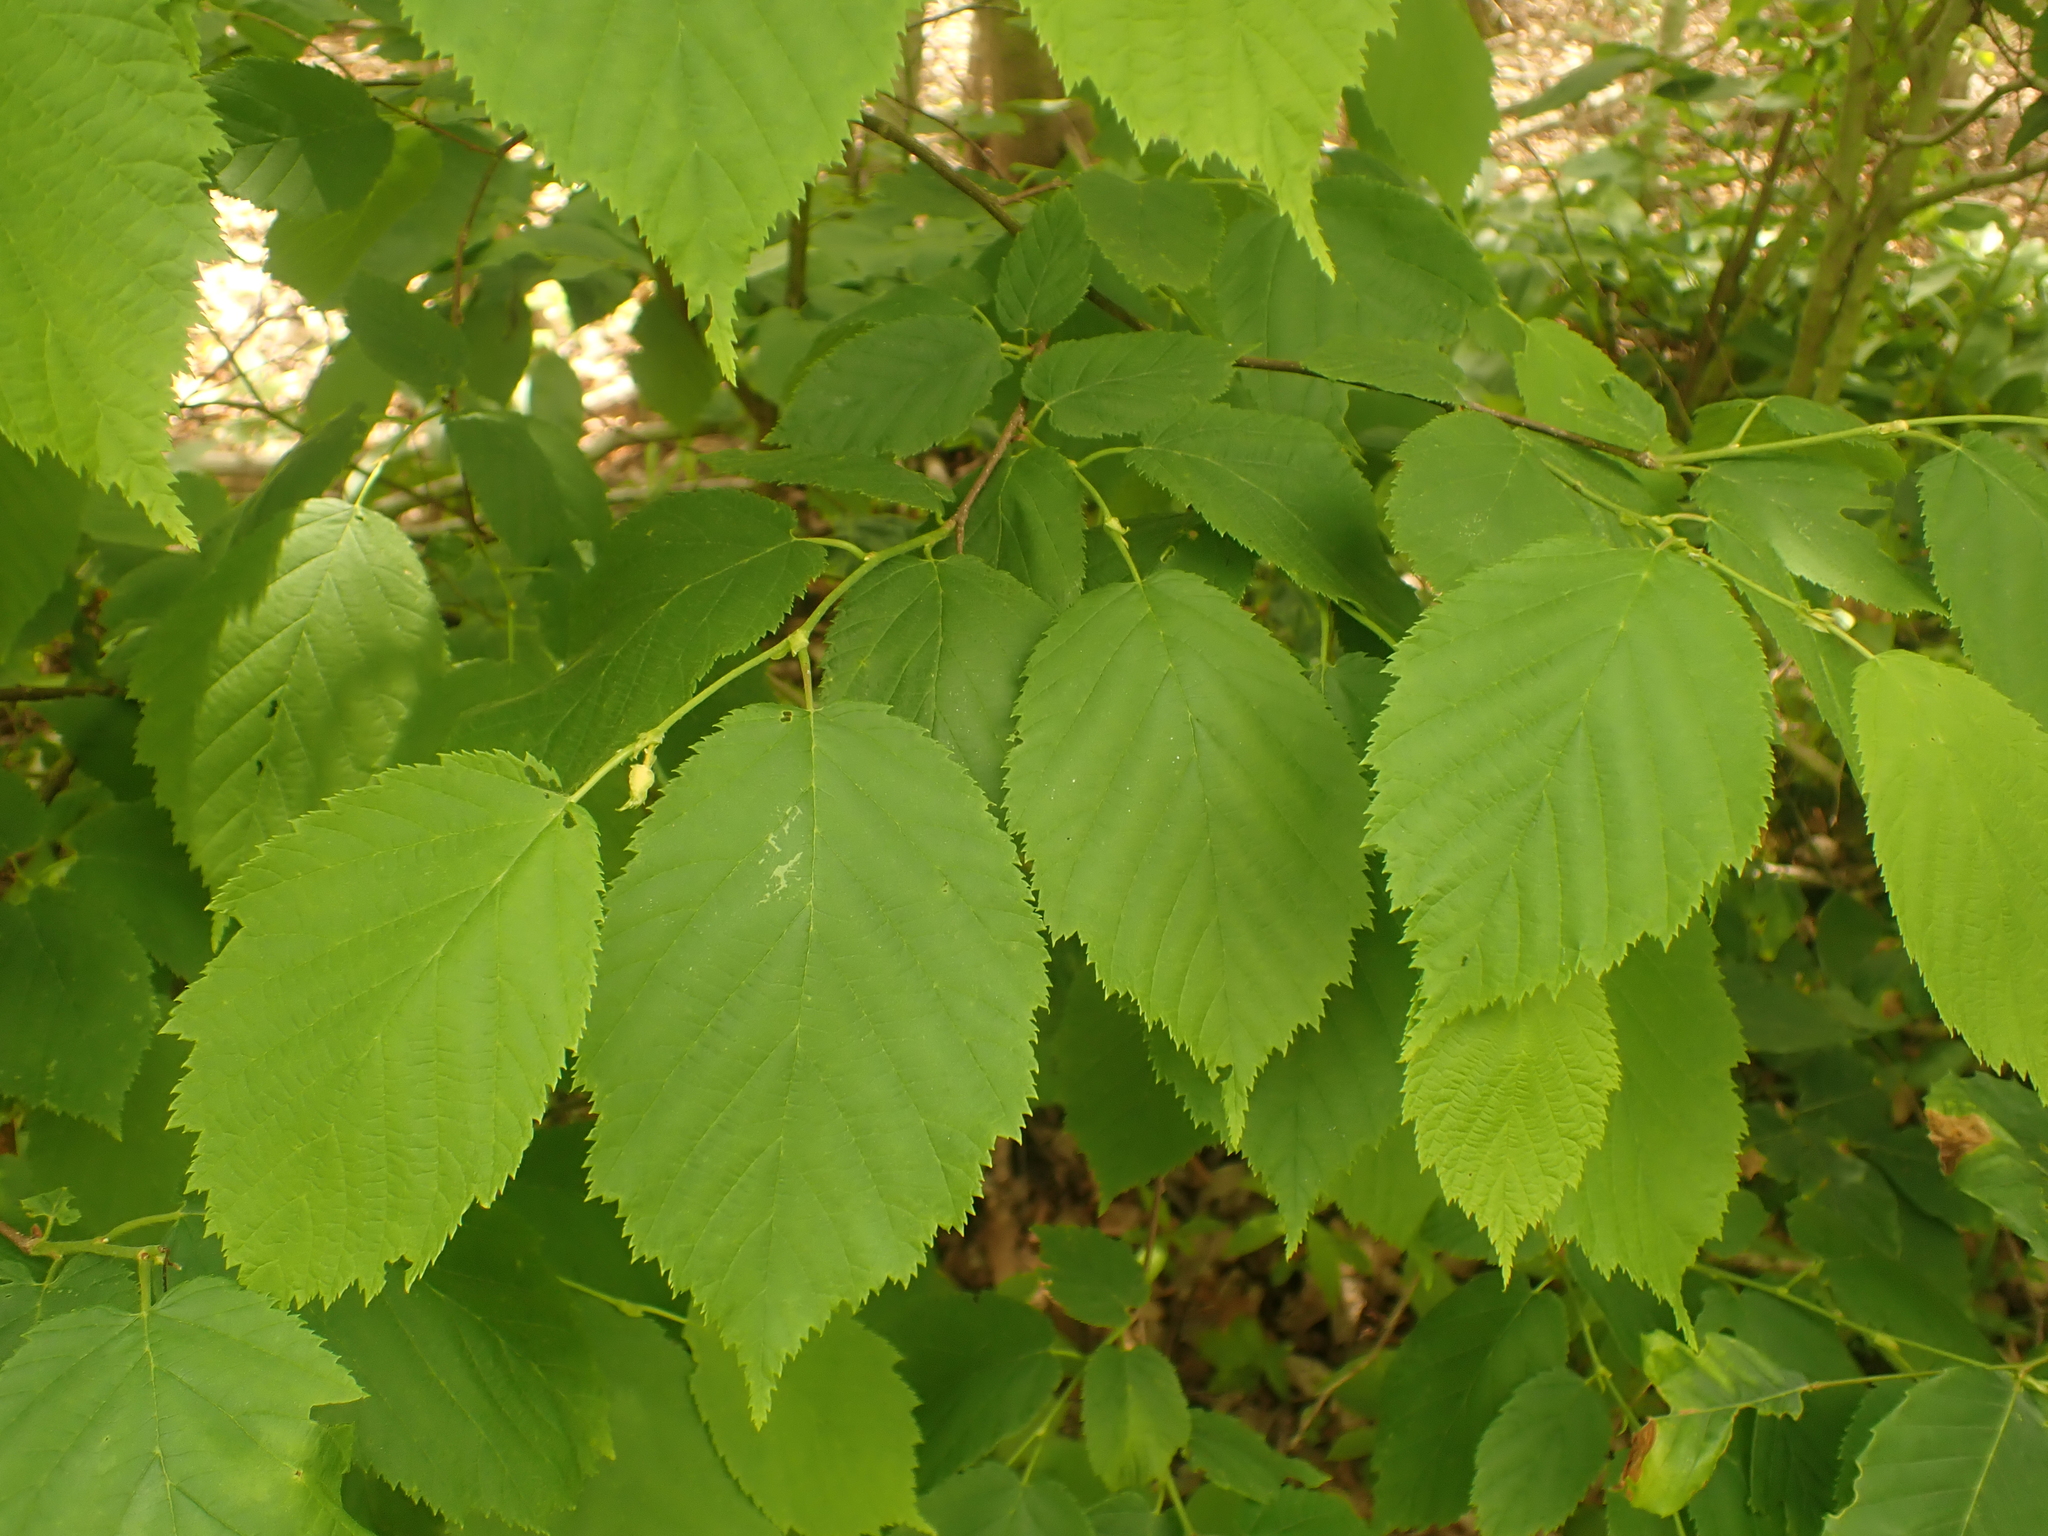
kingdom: Plantae
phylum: Tracheophyta
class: Magnoliopsida
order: Fagales
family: Betulaceae
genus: Corylus
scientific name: Corylus cornuta
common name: Beaked hazel
